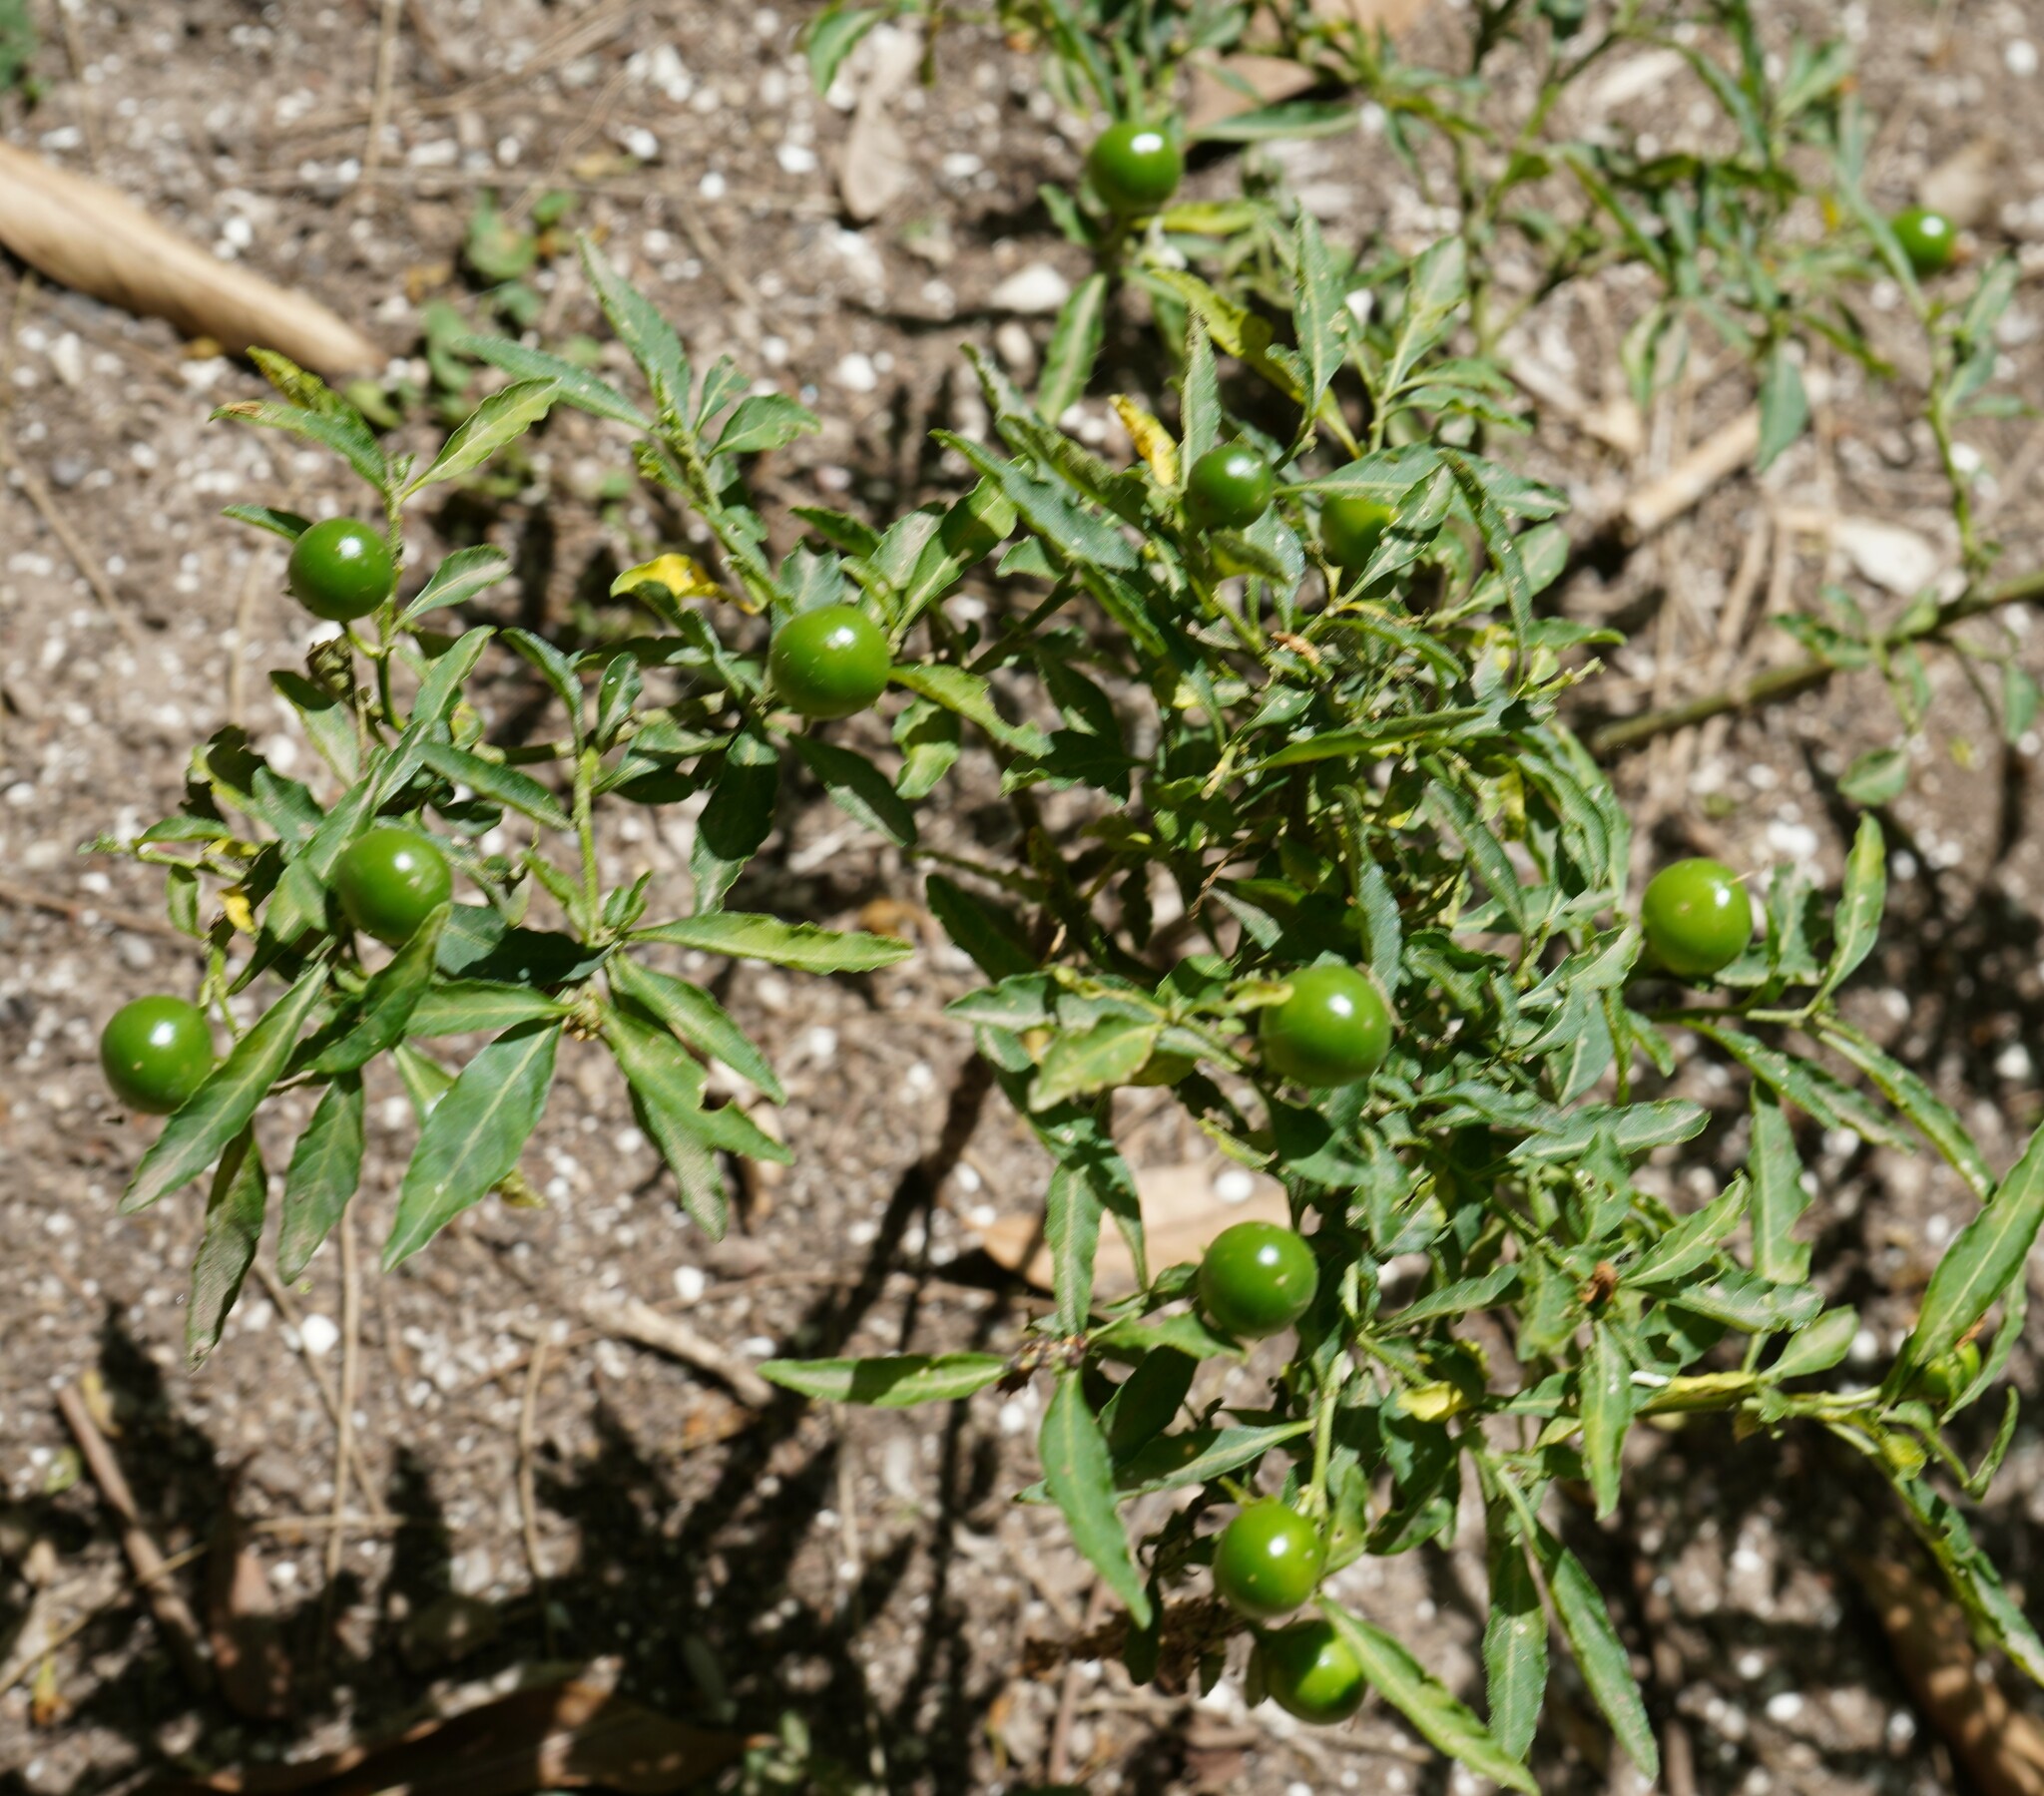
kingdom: Plantae
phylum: Tracheophyta
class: Magnoliopsida
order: Solanales
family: Solanaceae
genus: Solanum
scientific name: Solanum pseudocapsicum
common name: Jerusalem cherry
